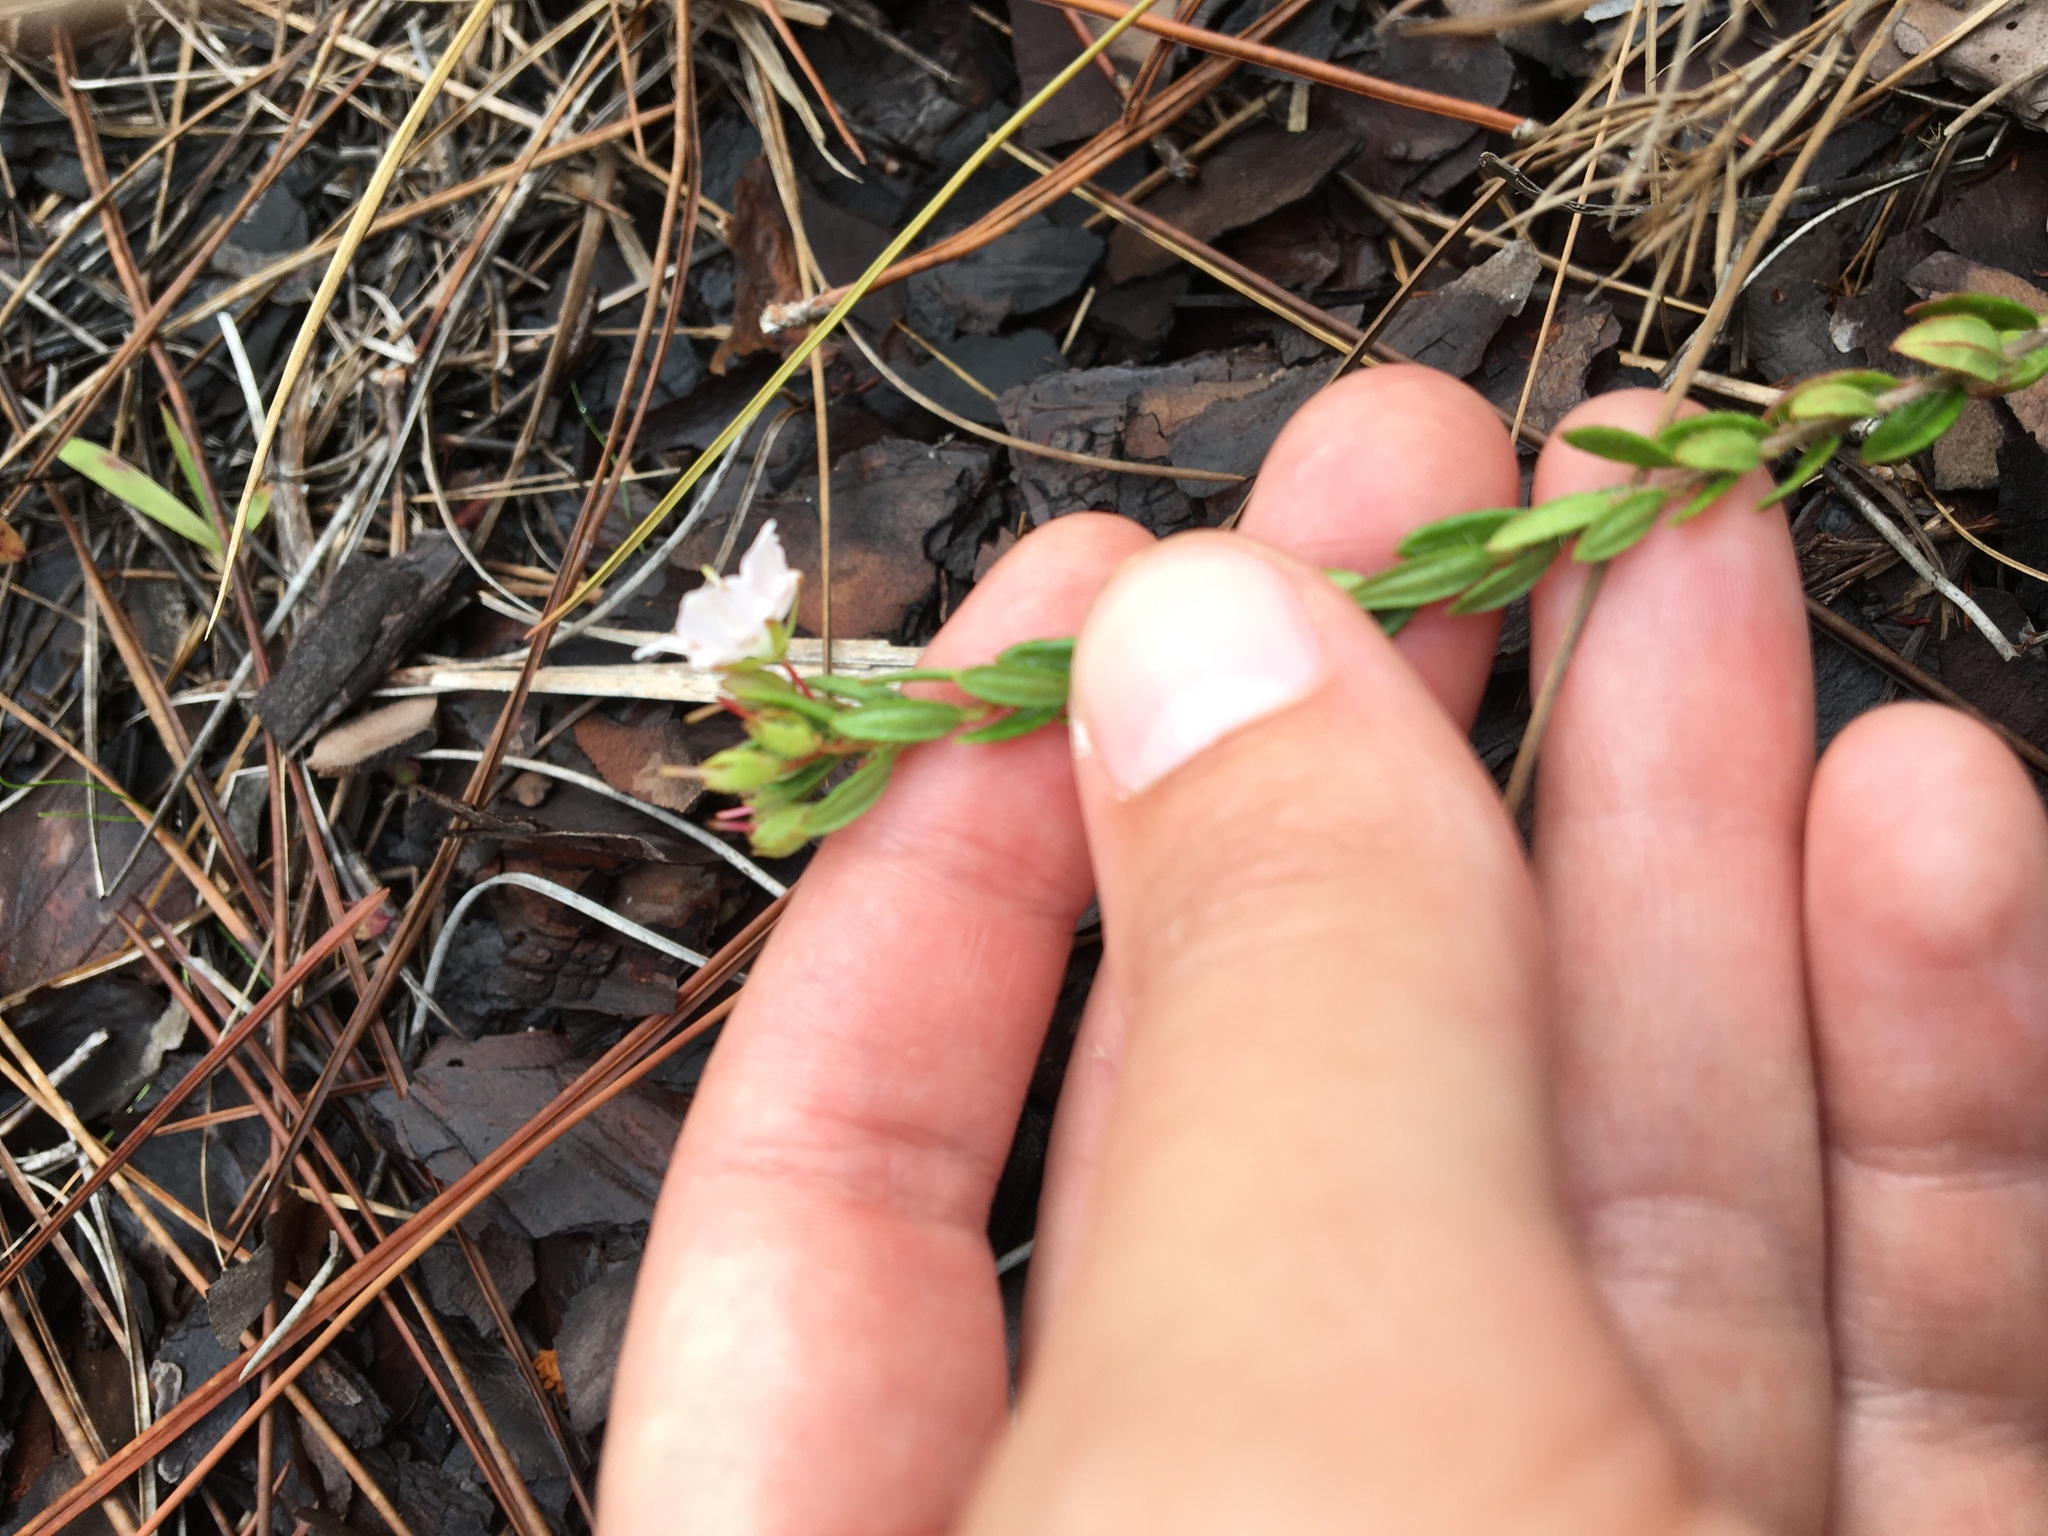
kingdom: Plantae
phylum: Tracheophyta
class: Magnoliopsida
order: Ericales
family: Ericaceae
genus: Kalmia
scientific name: Kalmia hirsuta
